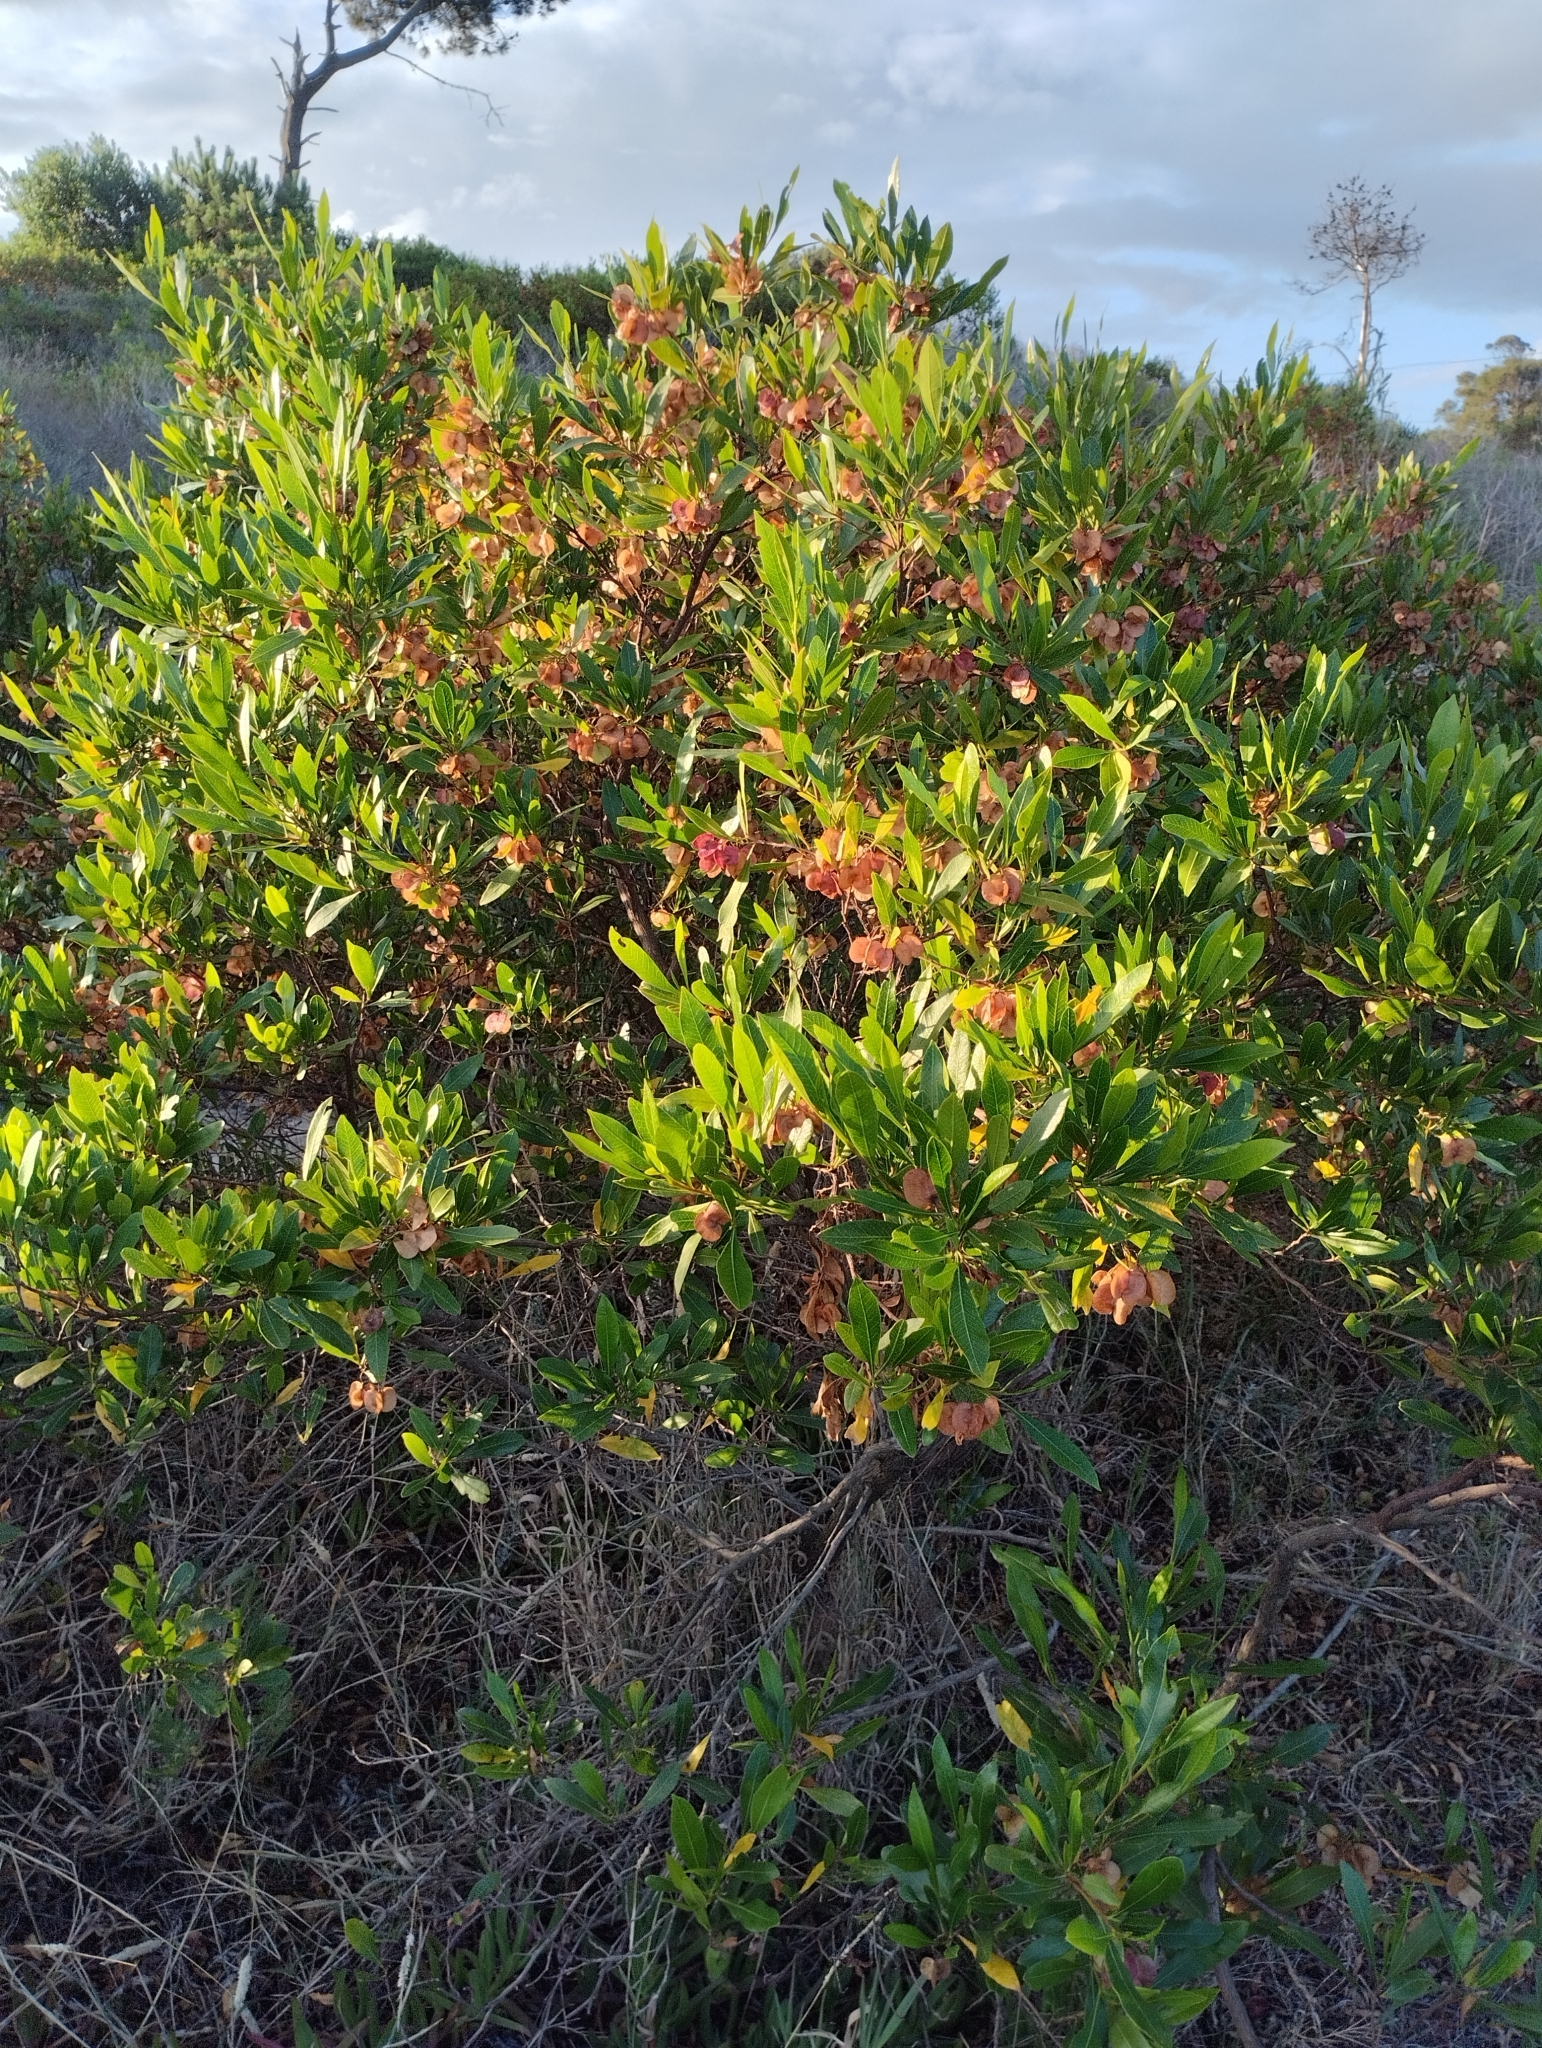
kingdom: Plantae
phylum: Tracheophyta
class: Magnoliopsida
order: Sapindales
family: Sapindaceae
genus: Dodonaea
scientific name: Dodonaea viscosa
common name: Hopbush
